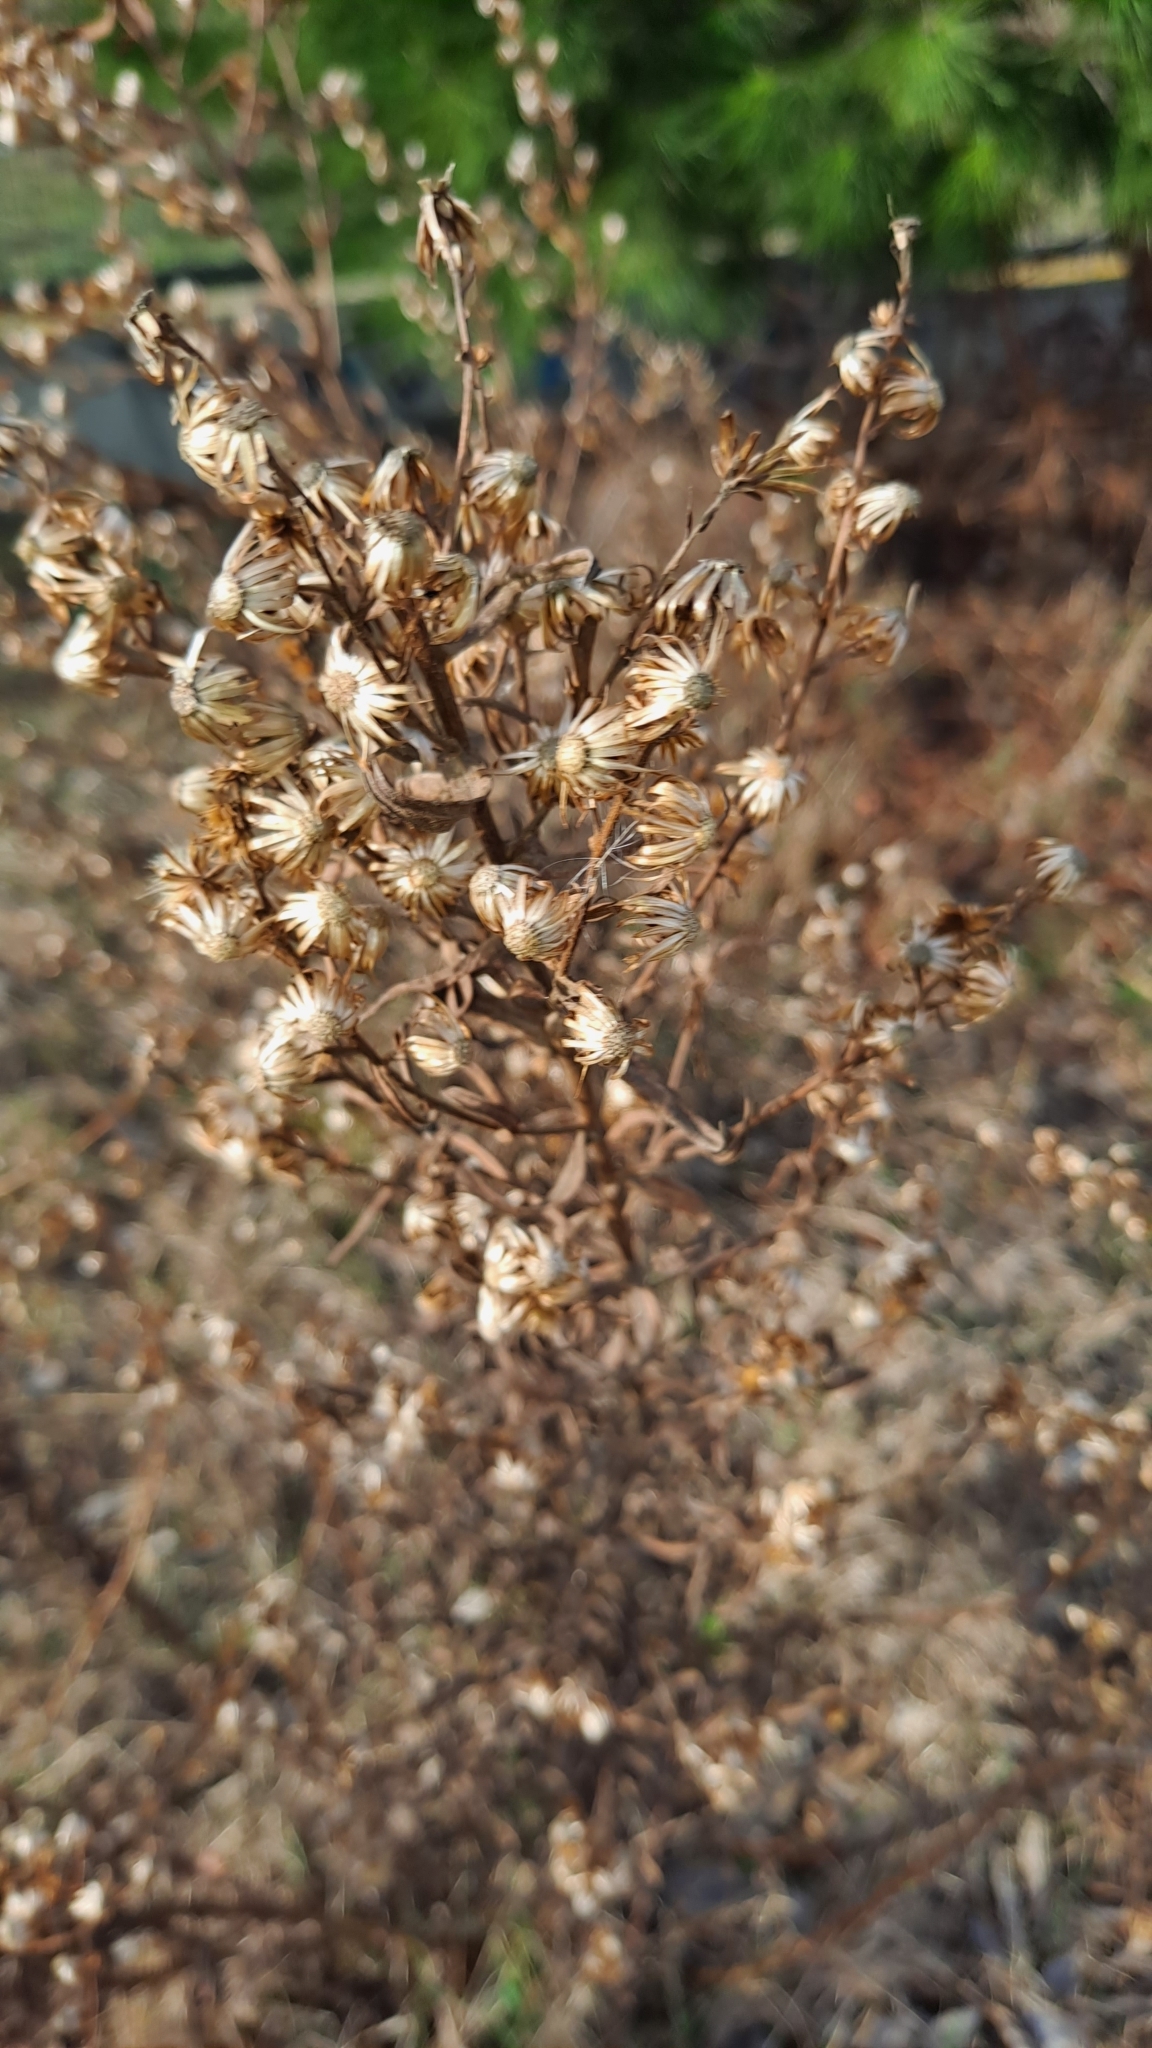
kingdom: Plantae
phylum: Tracheophyta
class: Magnoliopsida
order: Asterales
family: Asteraceae
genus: Dittrichia
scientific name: Dittrichia viscosa
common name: Woody fleabane
